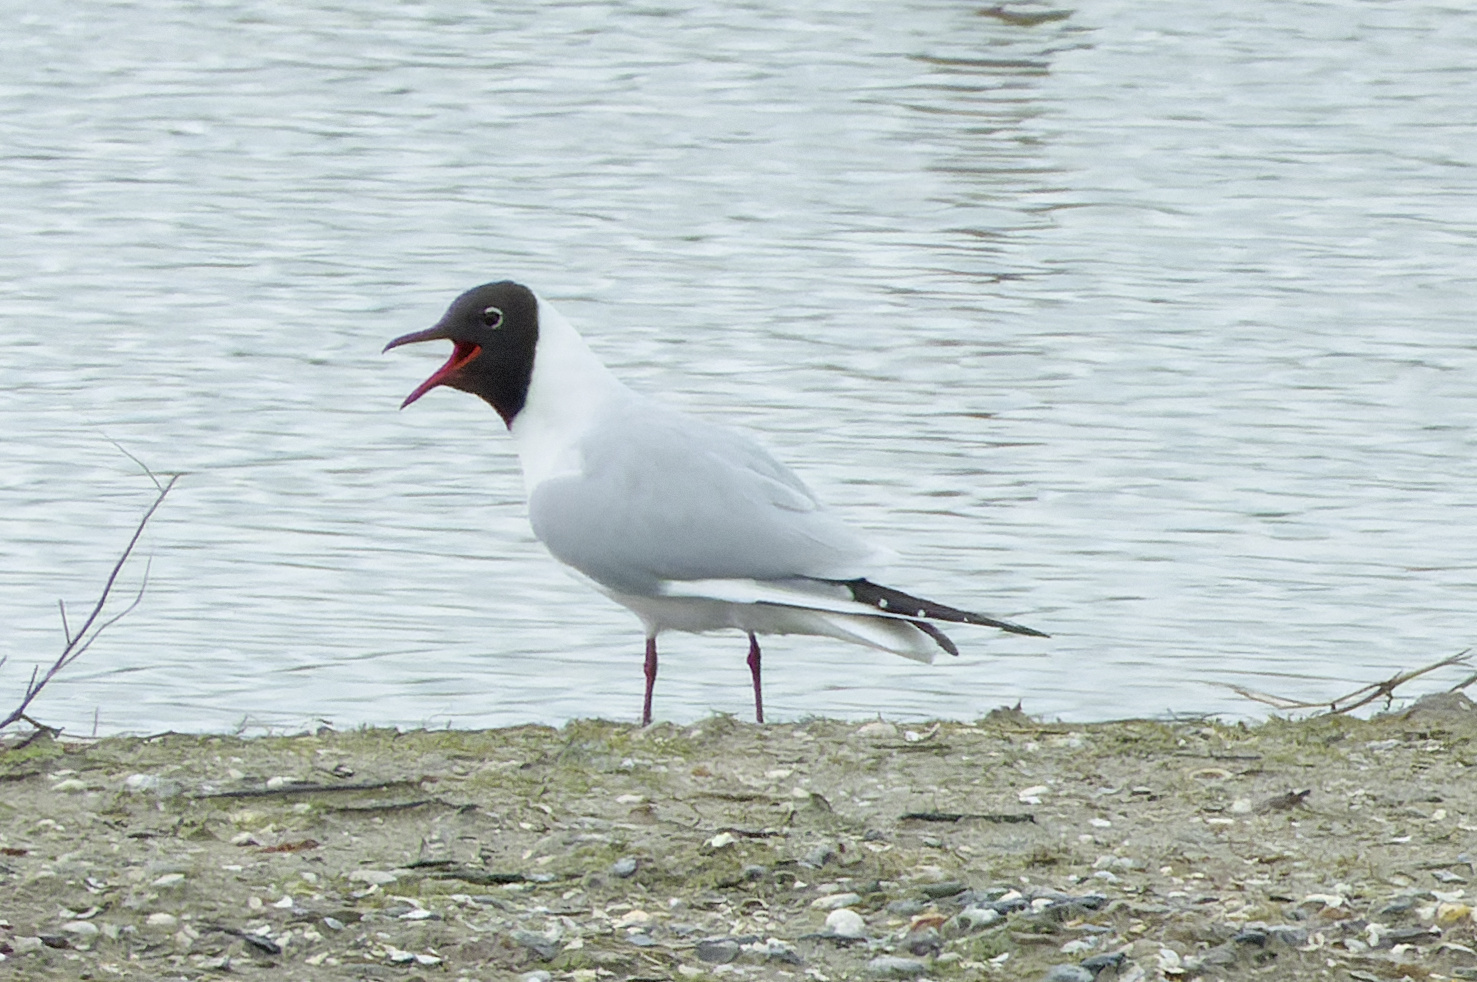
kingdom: Animalia
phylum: Chordata
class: Aves
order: Charadriiformes
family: Laridae
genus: Chroicocephalus
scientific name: Chroicocephalus ridibundus
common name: Black-headed gull
